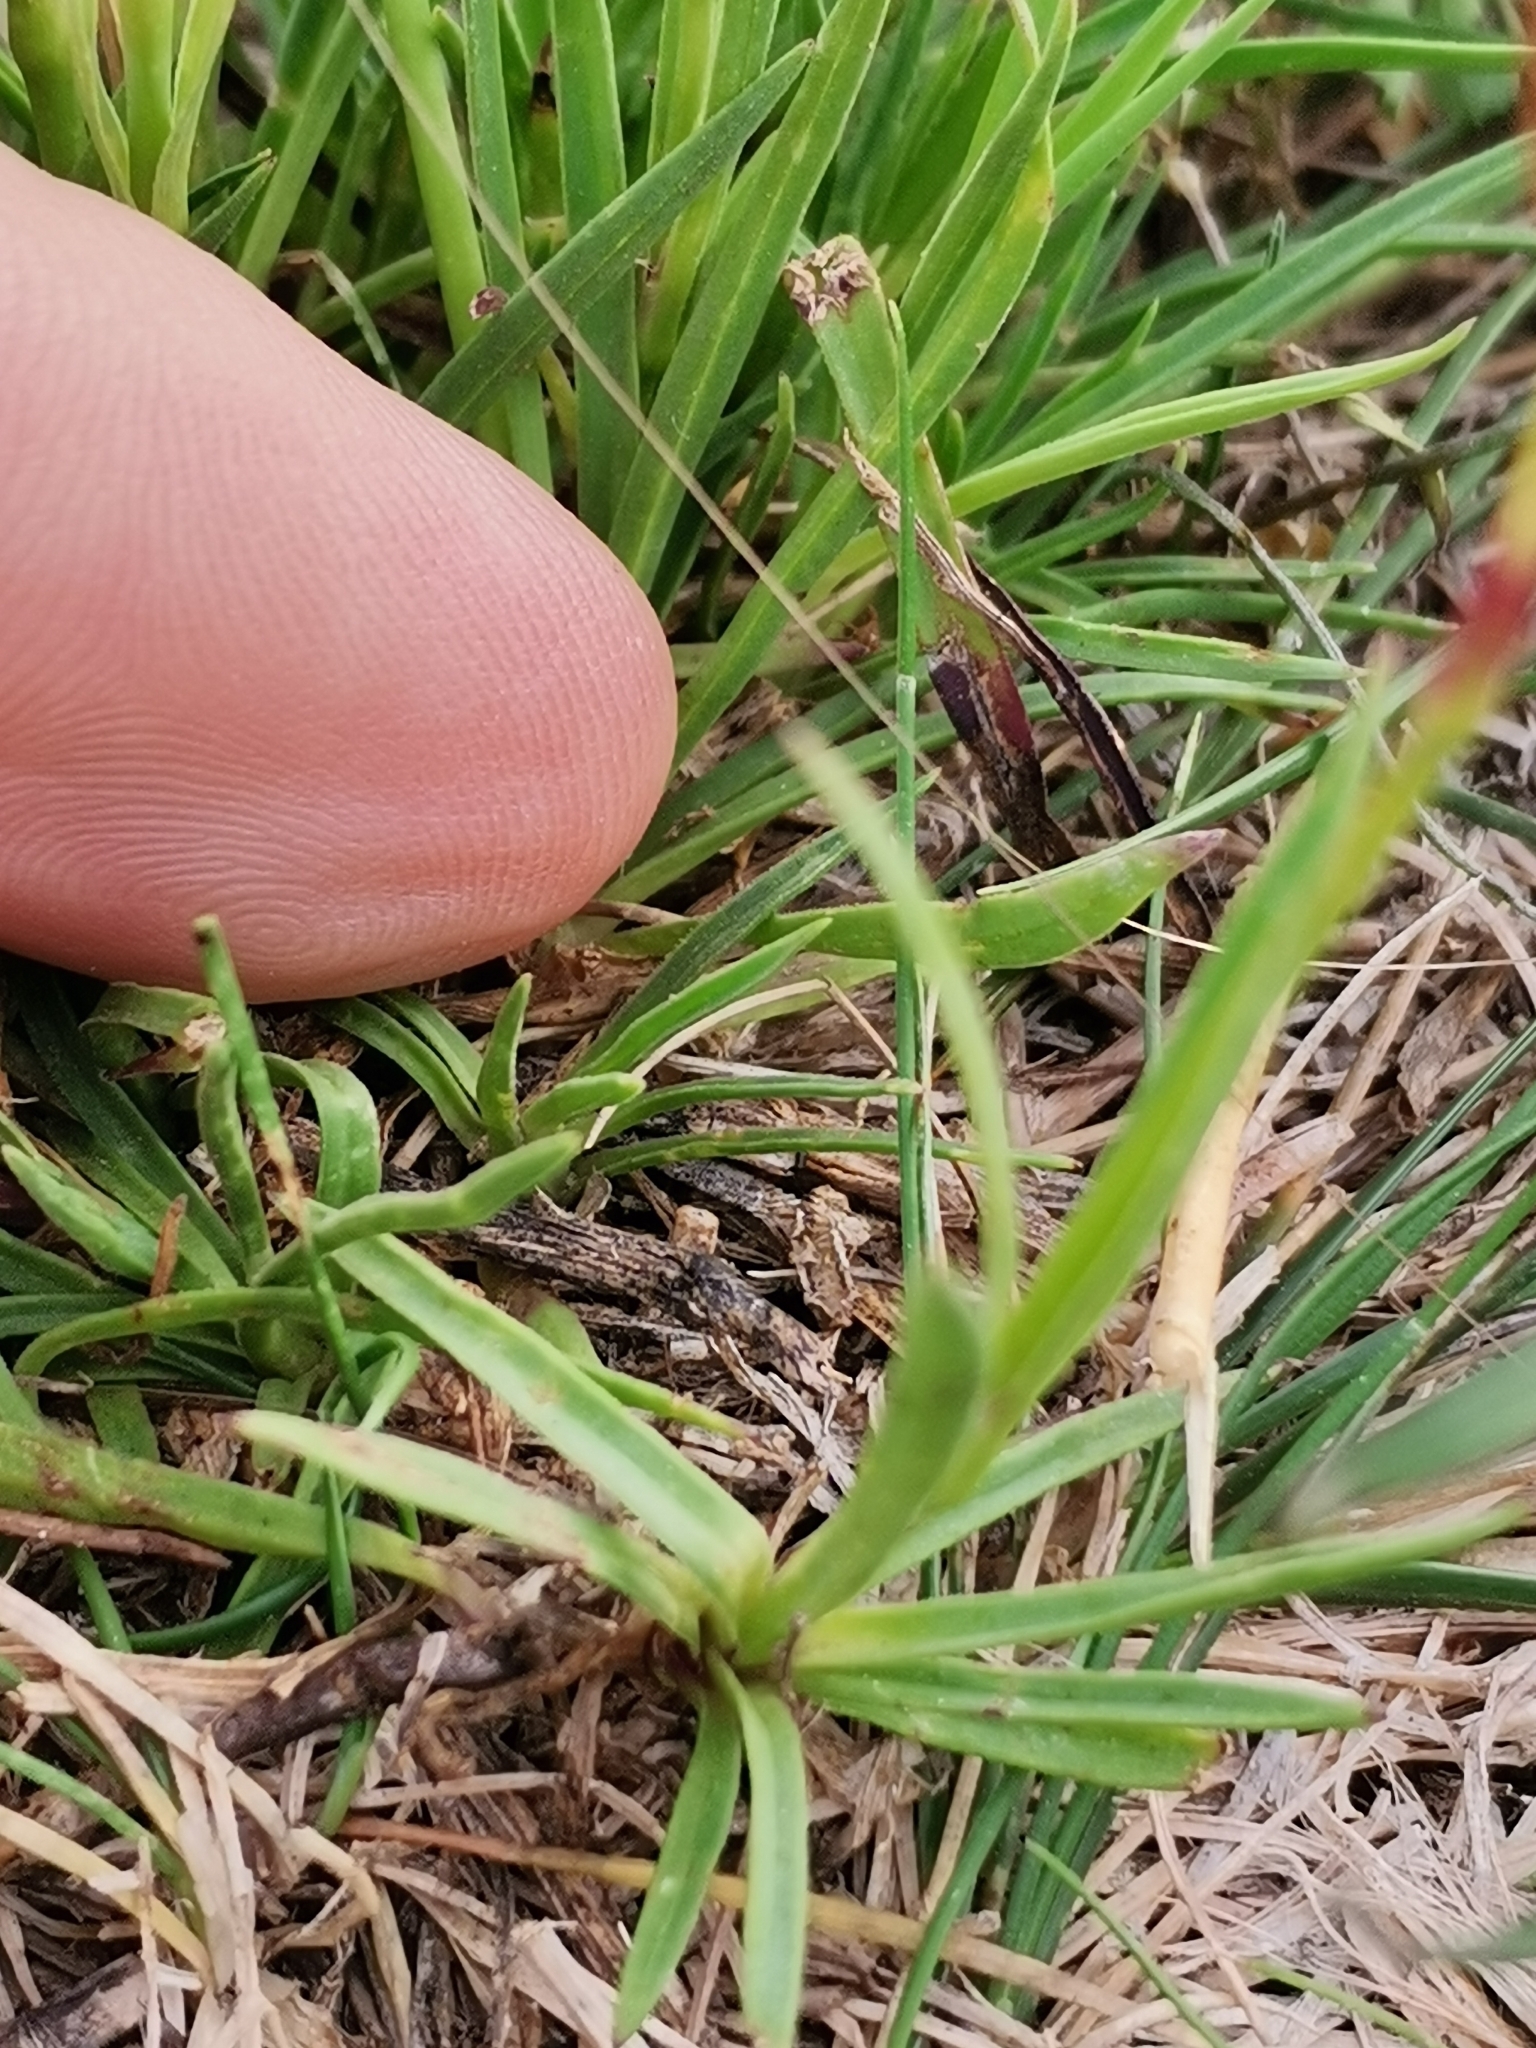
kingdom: Plantae
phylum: Tracheophyta
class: Magnoliopsida
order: Caryophyllales
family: Caryophyllaceae
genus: Dianthus
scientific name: Dianthus carthusianorum
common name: Carthusian pink
